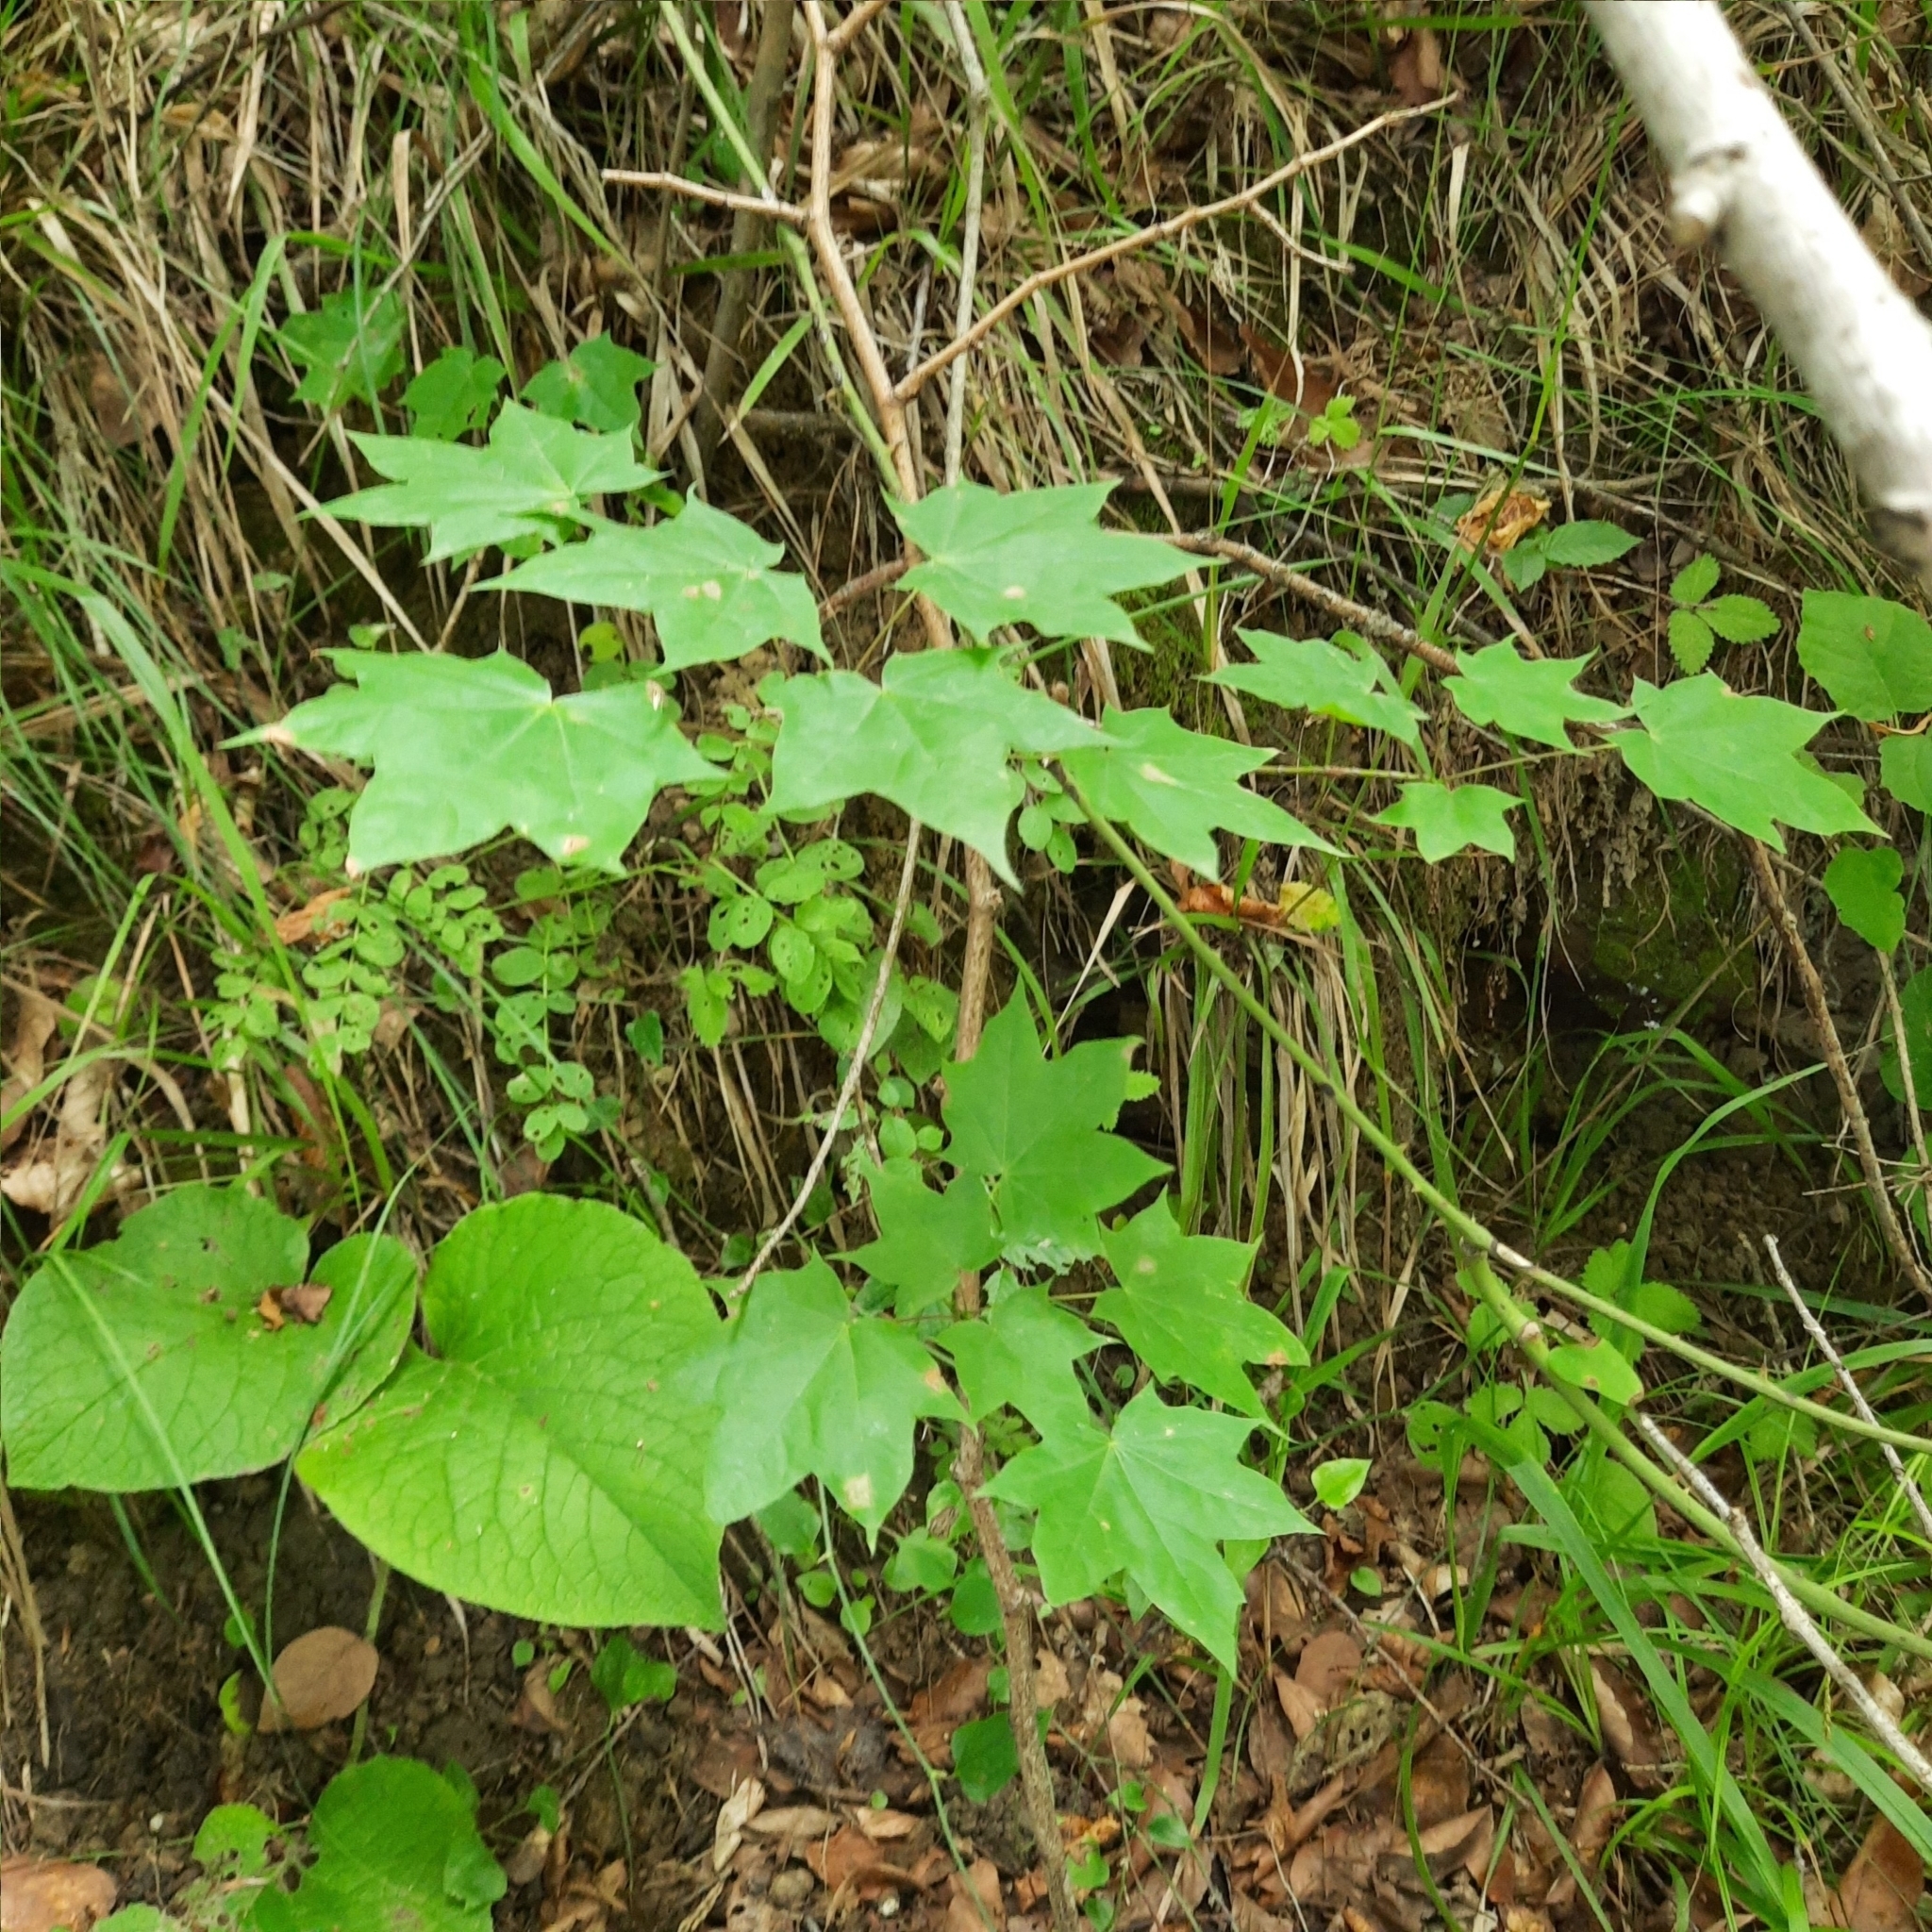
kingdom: Plantae
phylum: Tracheophyta
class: Magnoliopsida
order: Sapindales
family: Sapindaceae
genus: Acer
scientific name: Acer cappadocicum
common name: Cappadocian maple
